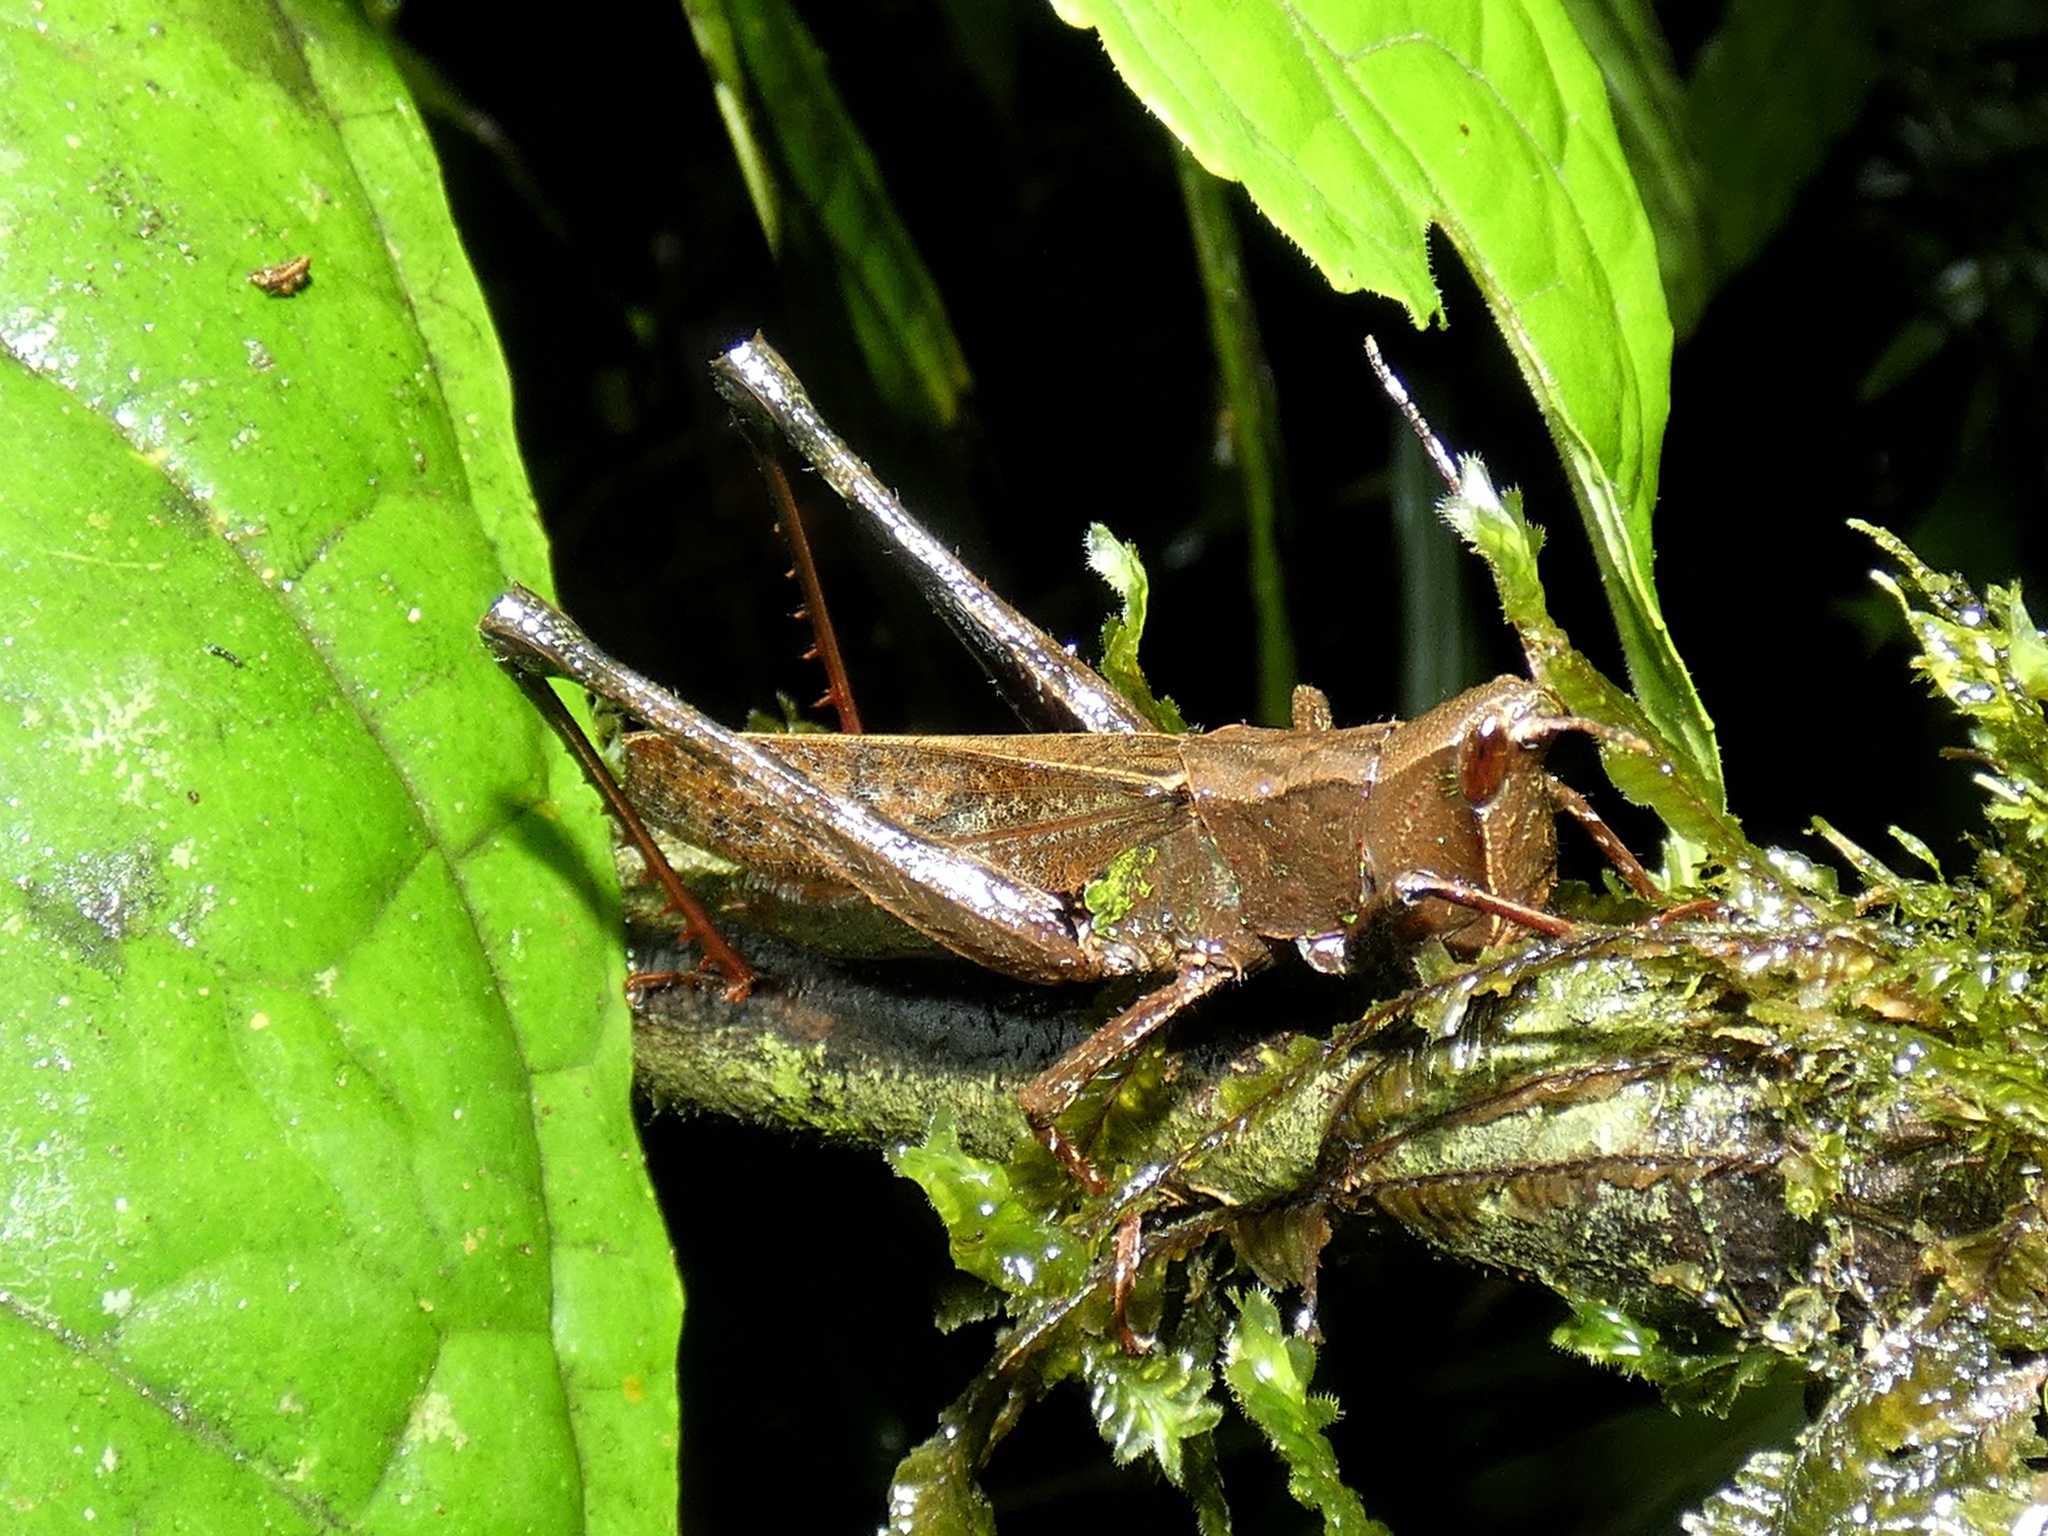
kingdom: Animalia
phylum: Arthropoda
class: Insecta
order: Orthoptera
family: Romaleidae
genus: Phaeoparia
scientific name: Phaeoparia depressicornis
